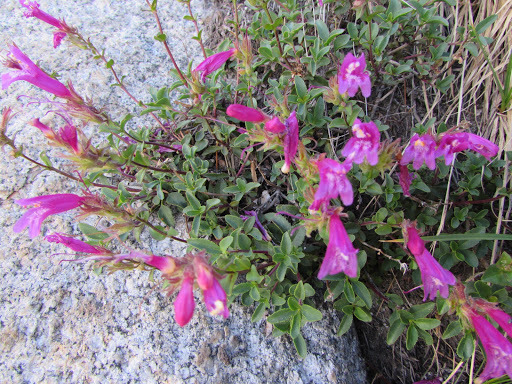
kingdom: Plantae
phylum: Tracheophyta
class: Magnoliopsida
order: Lamiales
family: Plantaginaceae
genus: Penstemon
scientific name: Penstemon newberryi
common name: Mountain-pride
